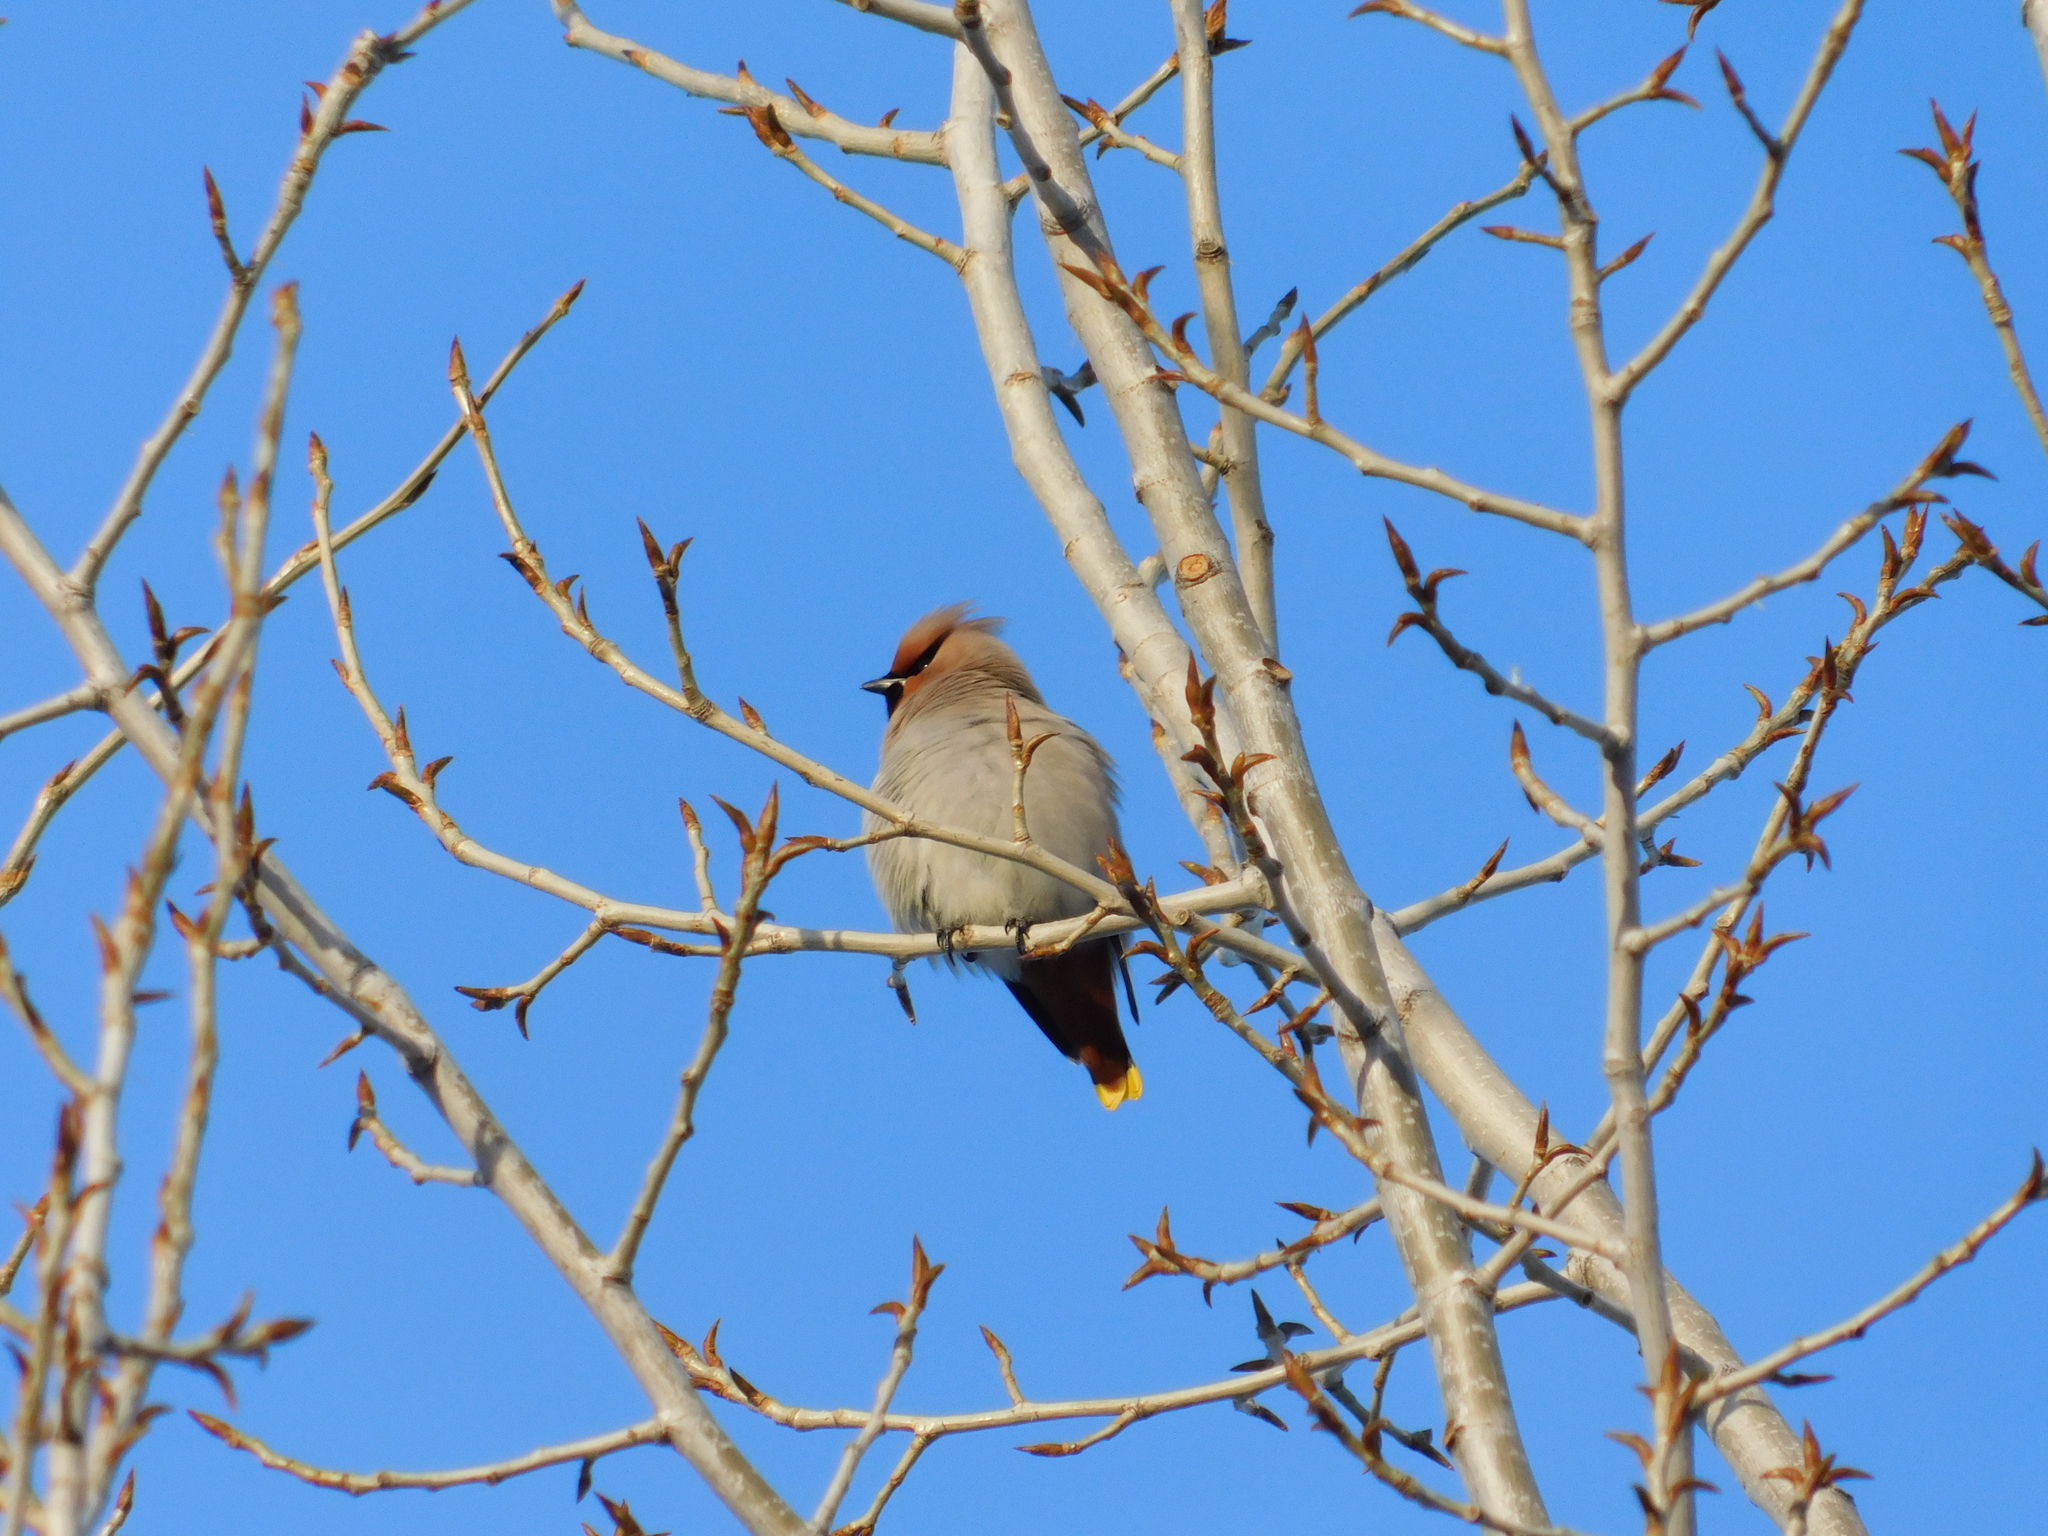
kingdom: Animalia
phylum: Chordata
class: Aves
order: Passeriformes
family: Bombycillidae
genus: Bombycilla
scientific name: Bombycilla garrulus
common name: Bohemian waxwing
